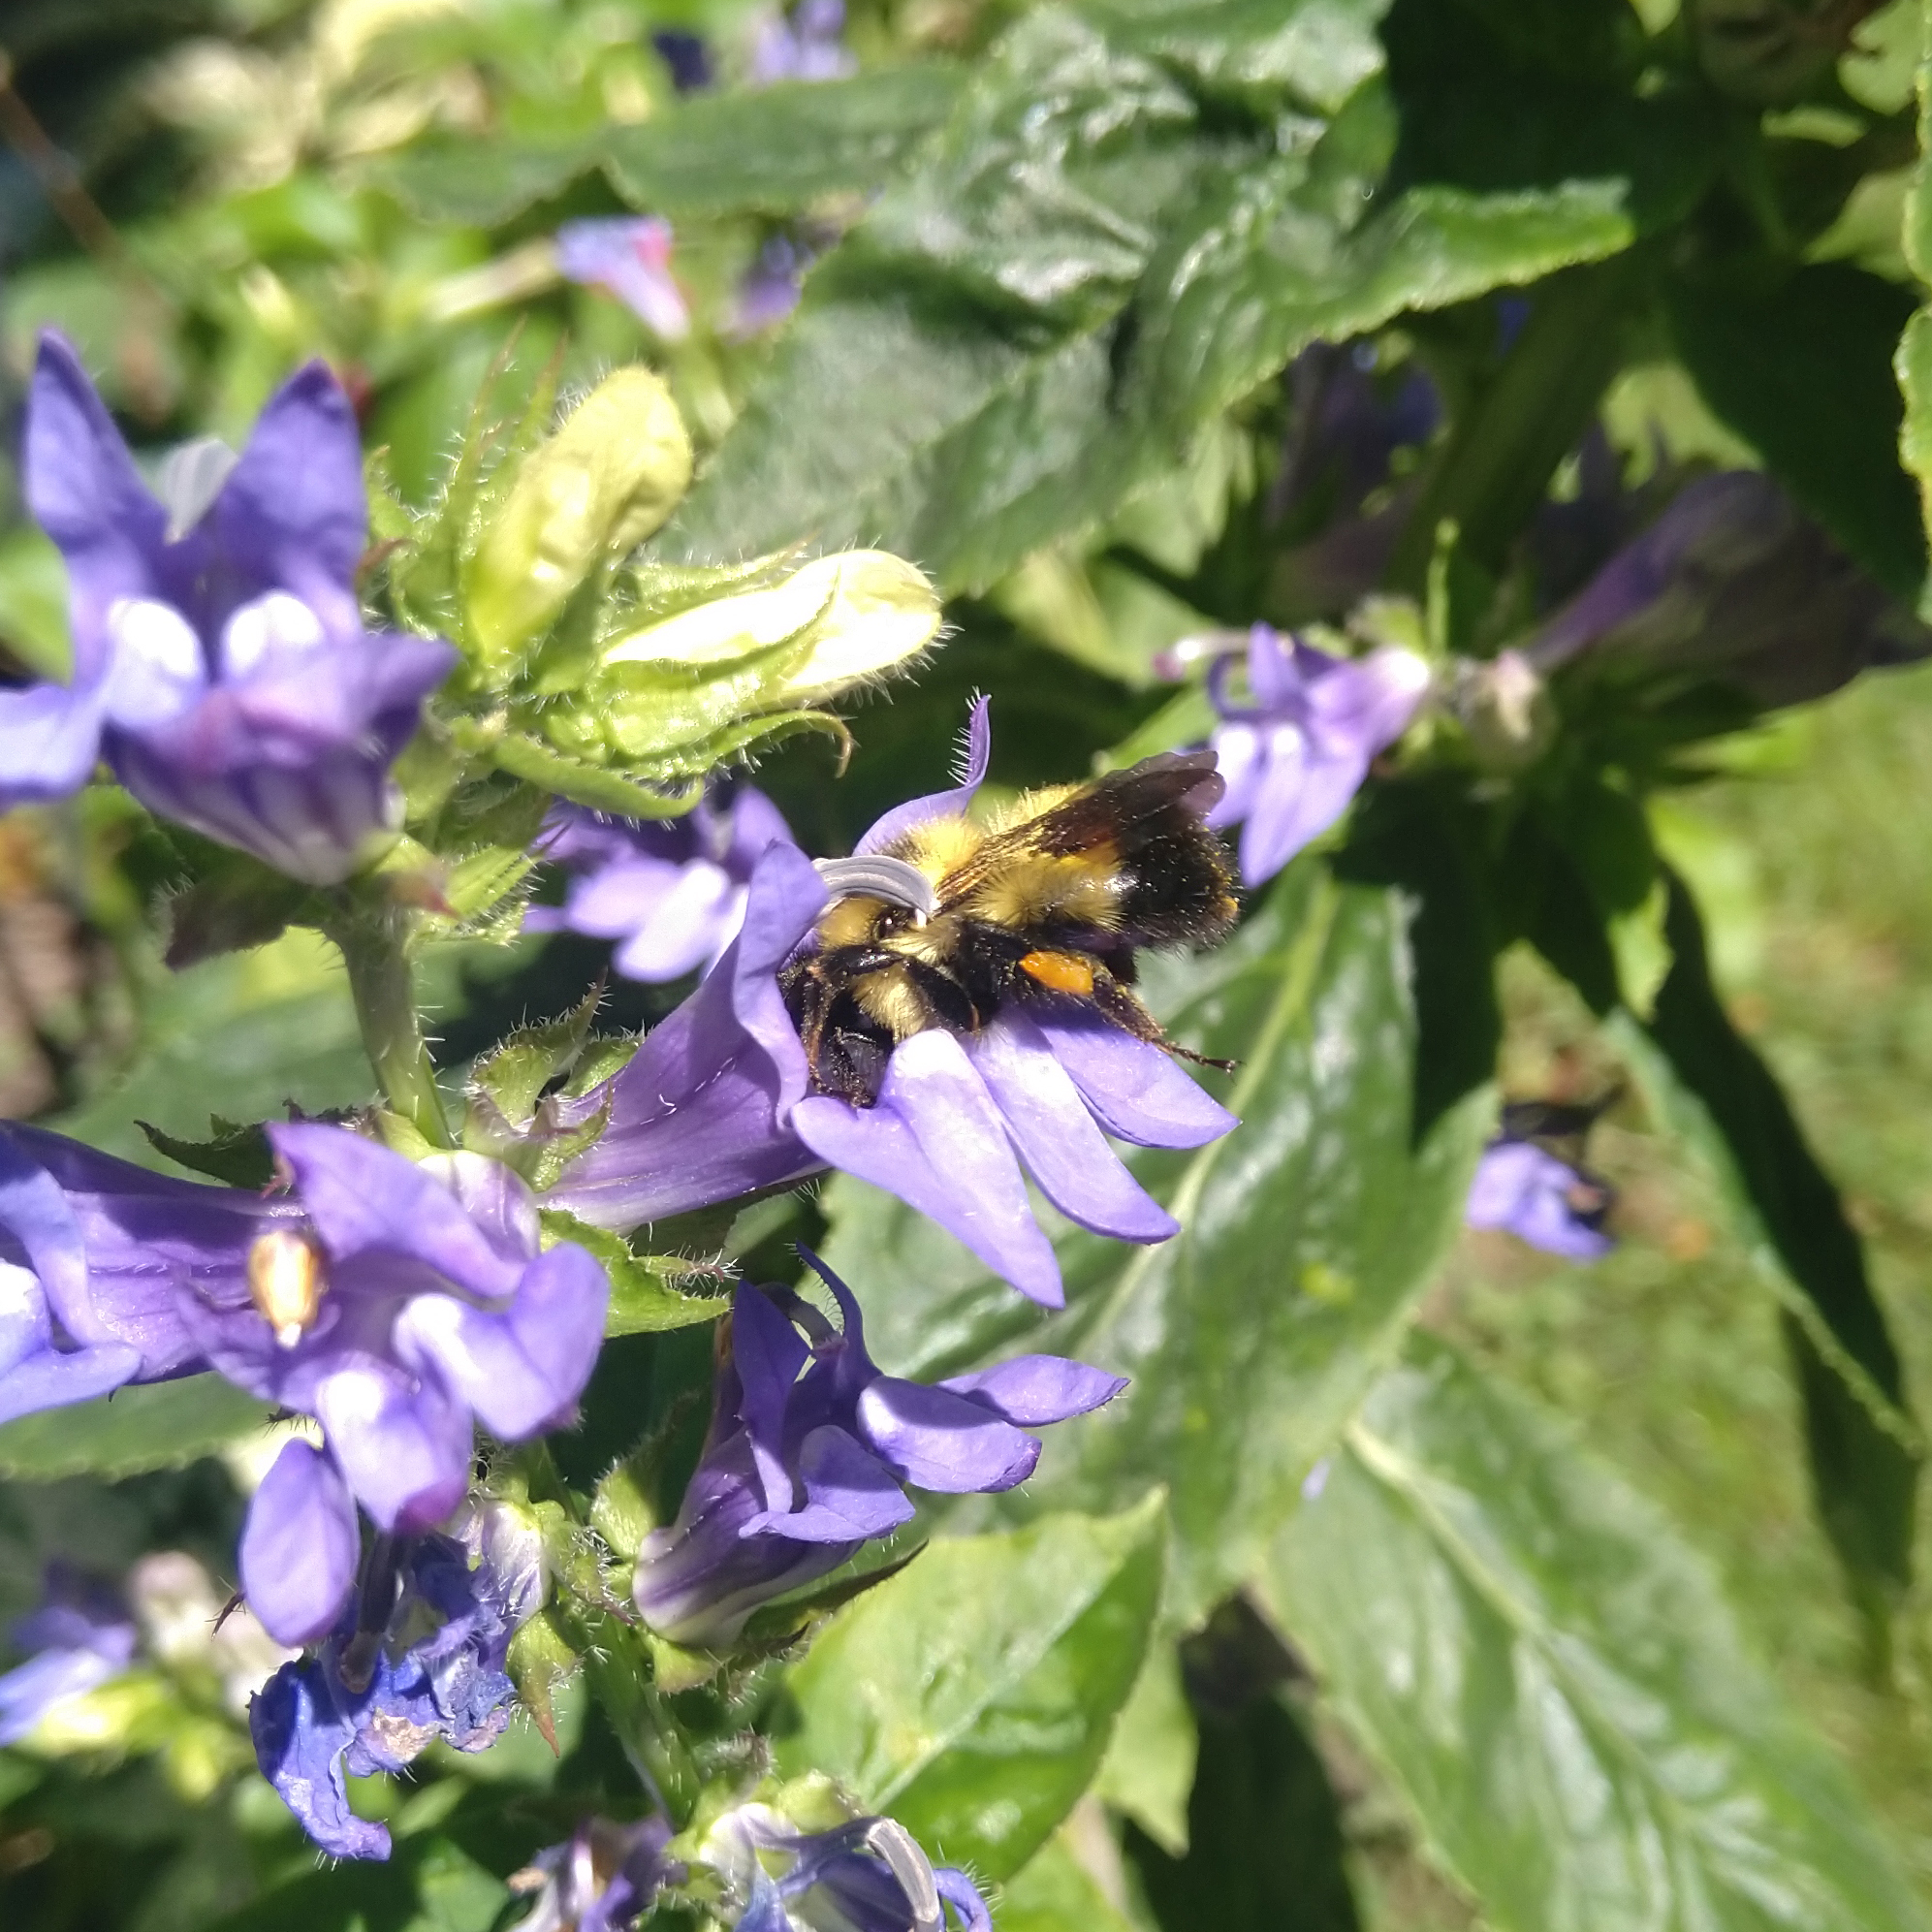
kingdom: Animalia
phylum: Arthropoda
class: Insecta
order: Hymenoptera
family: Apidae
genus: Pyrobombus
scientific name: Pyrobombus
